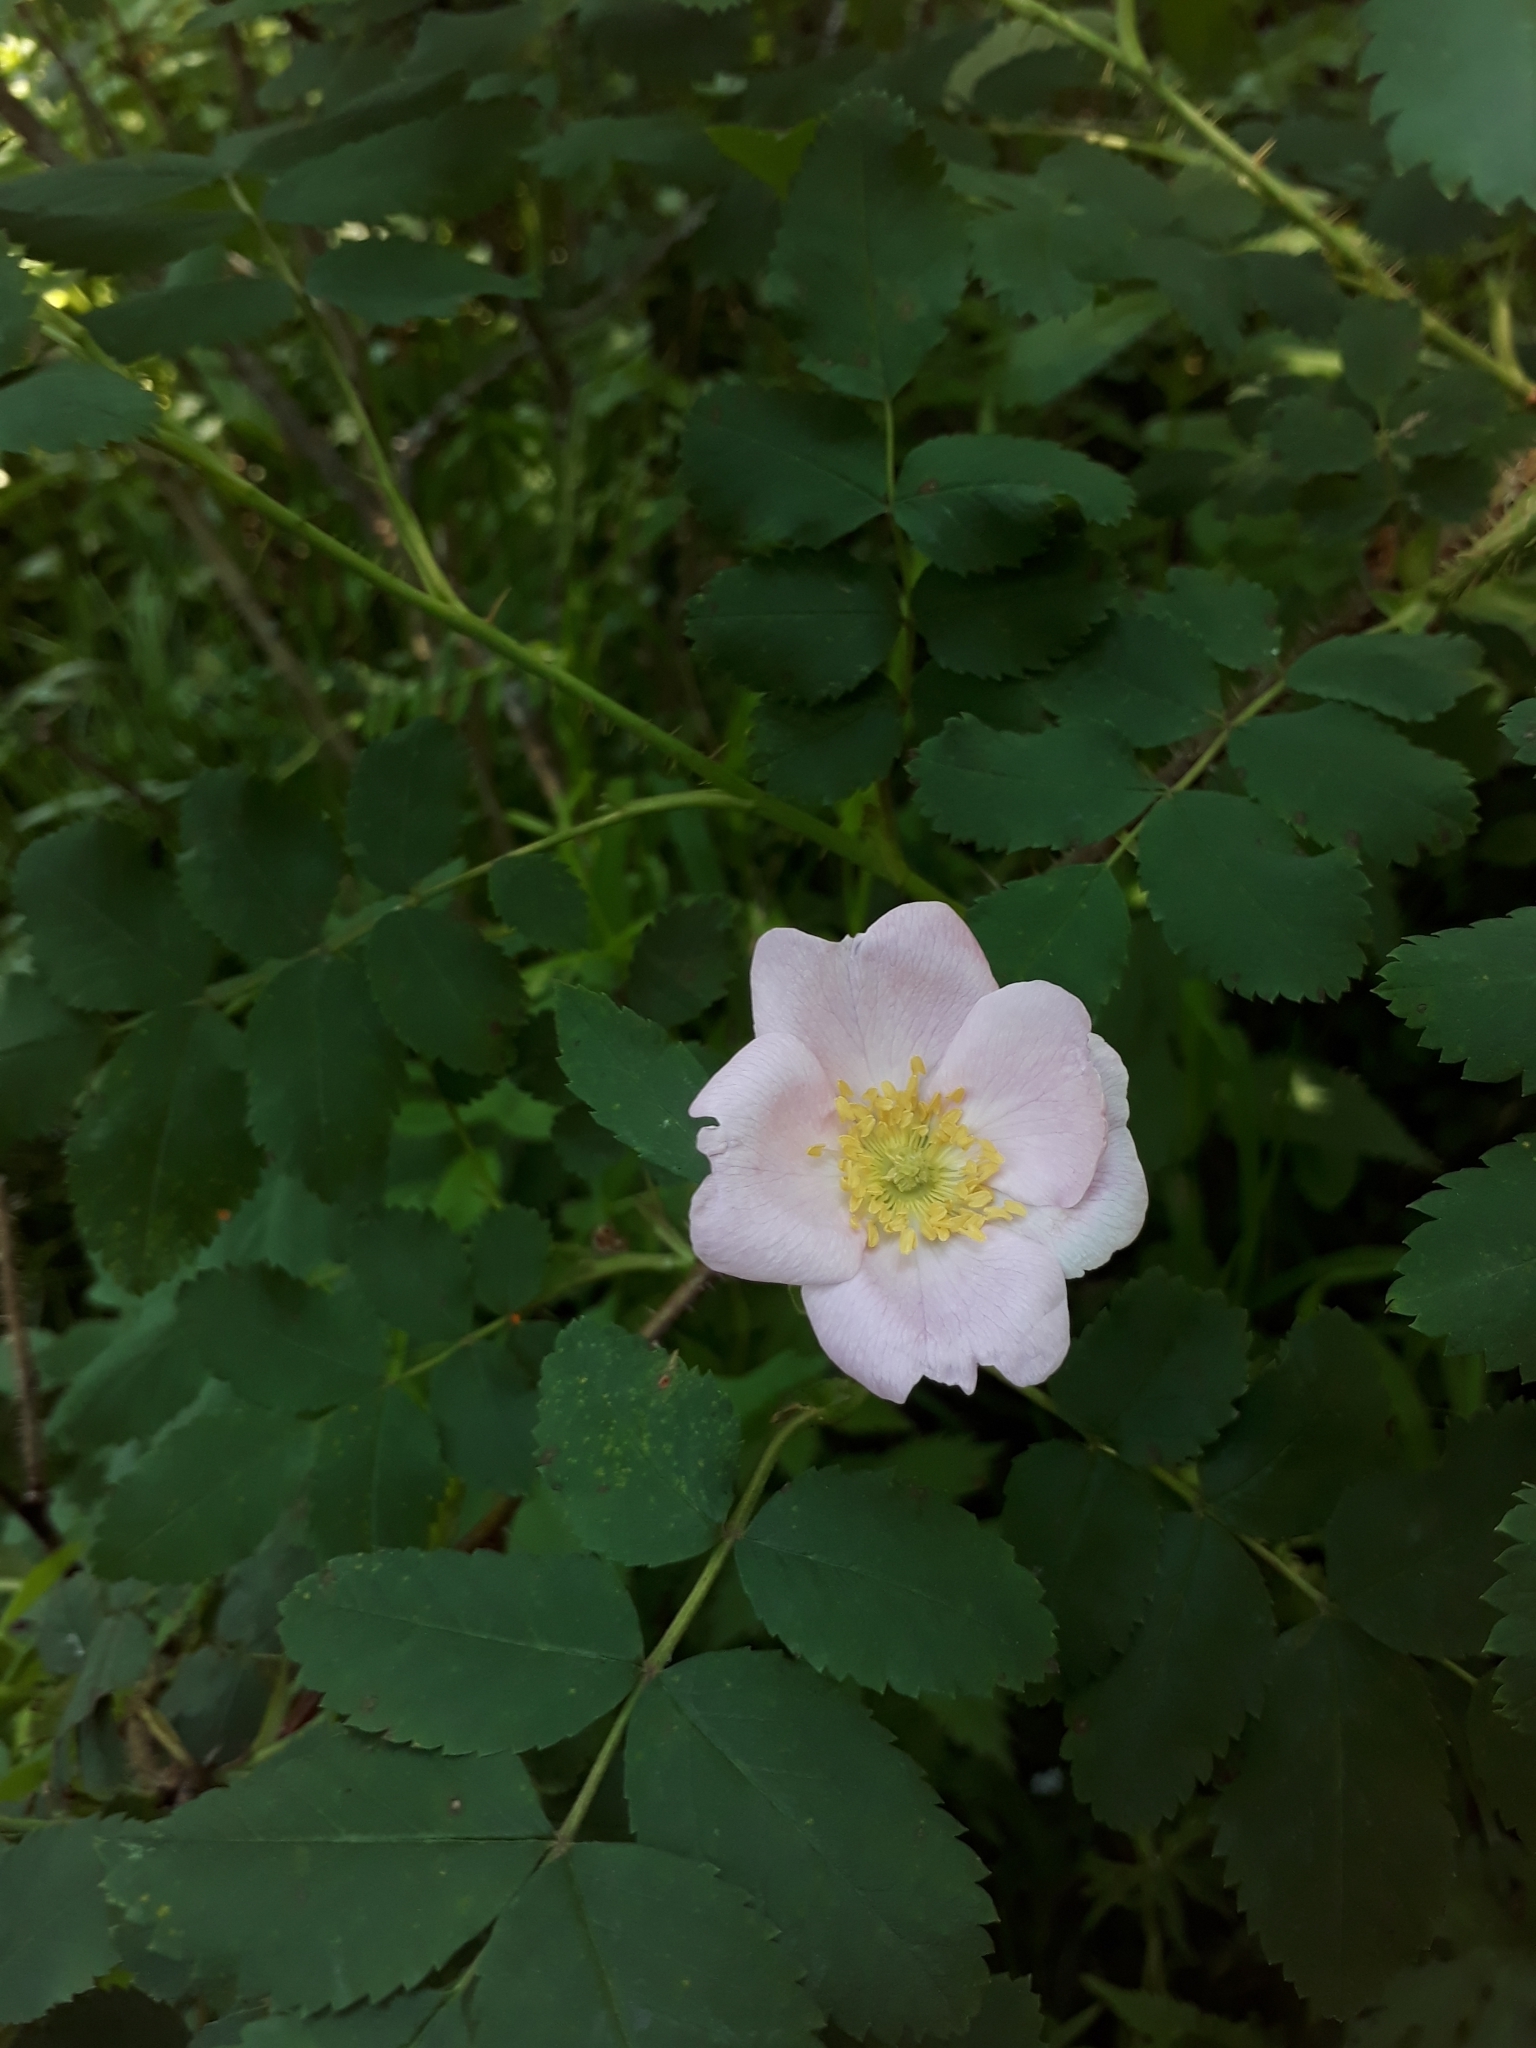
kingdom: Plantae
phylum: Tracheophyta
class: Magnoliopsida
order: Rosales
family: Rosaceae
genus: Rosa
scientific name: Rosa majalis
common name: Cinnamon rose
